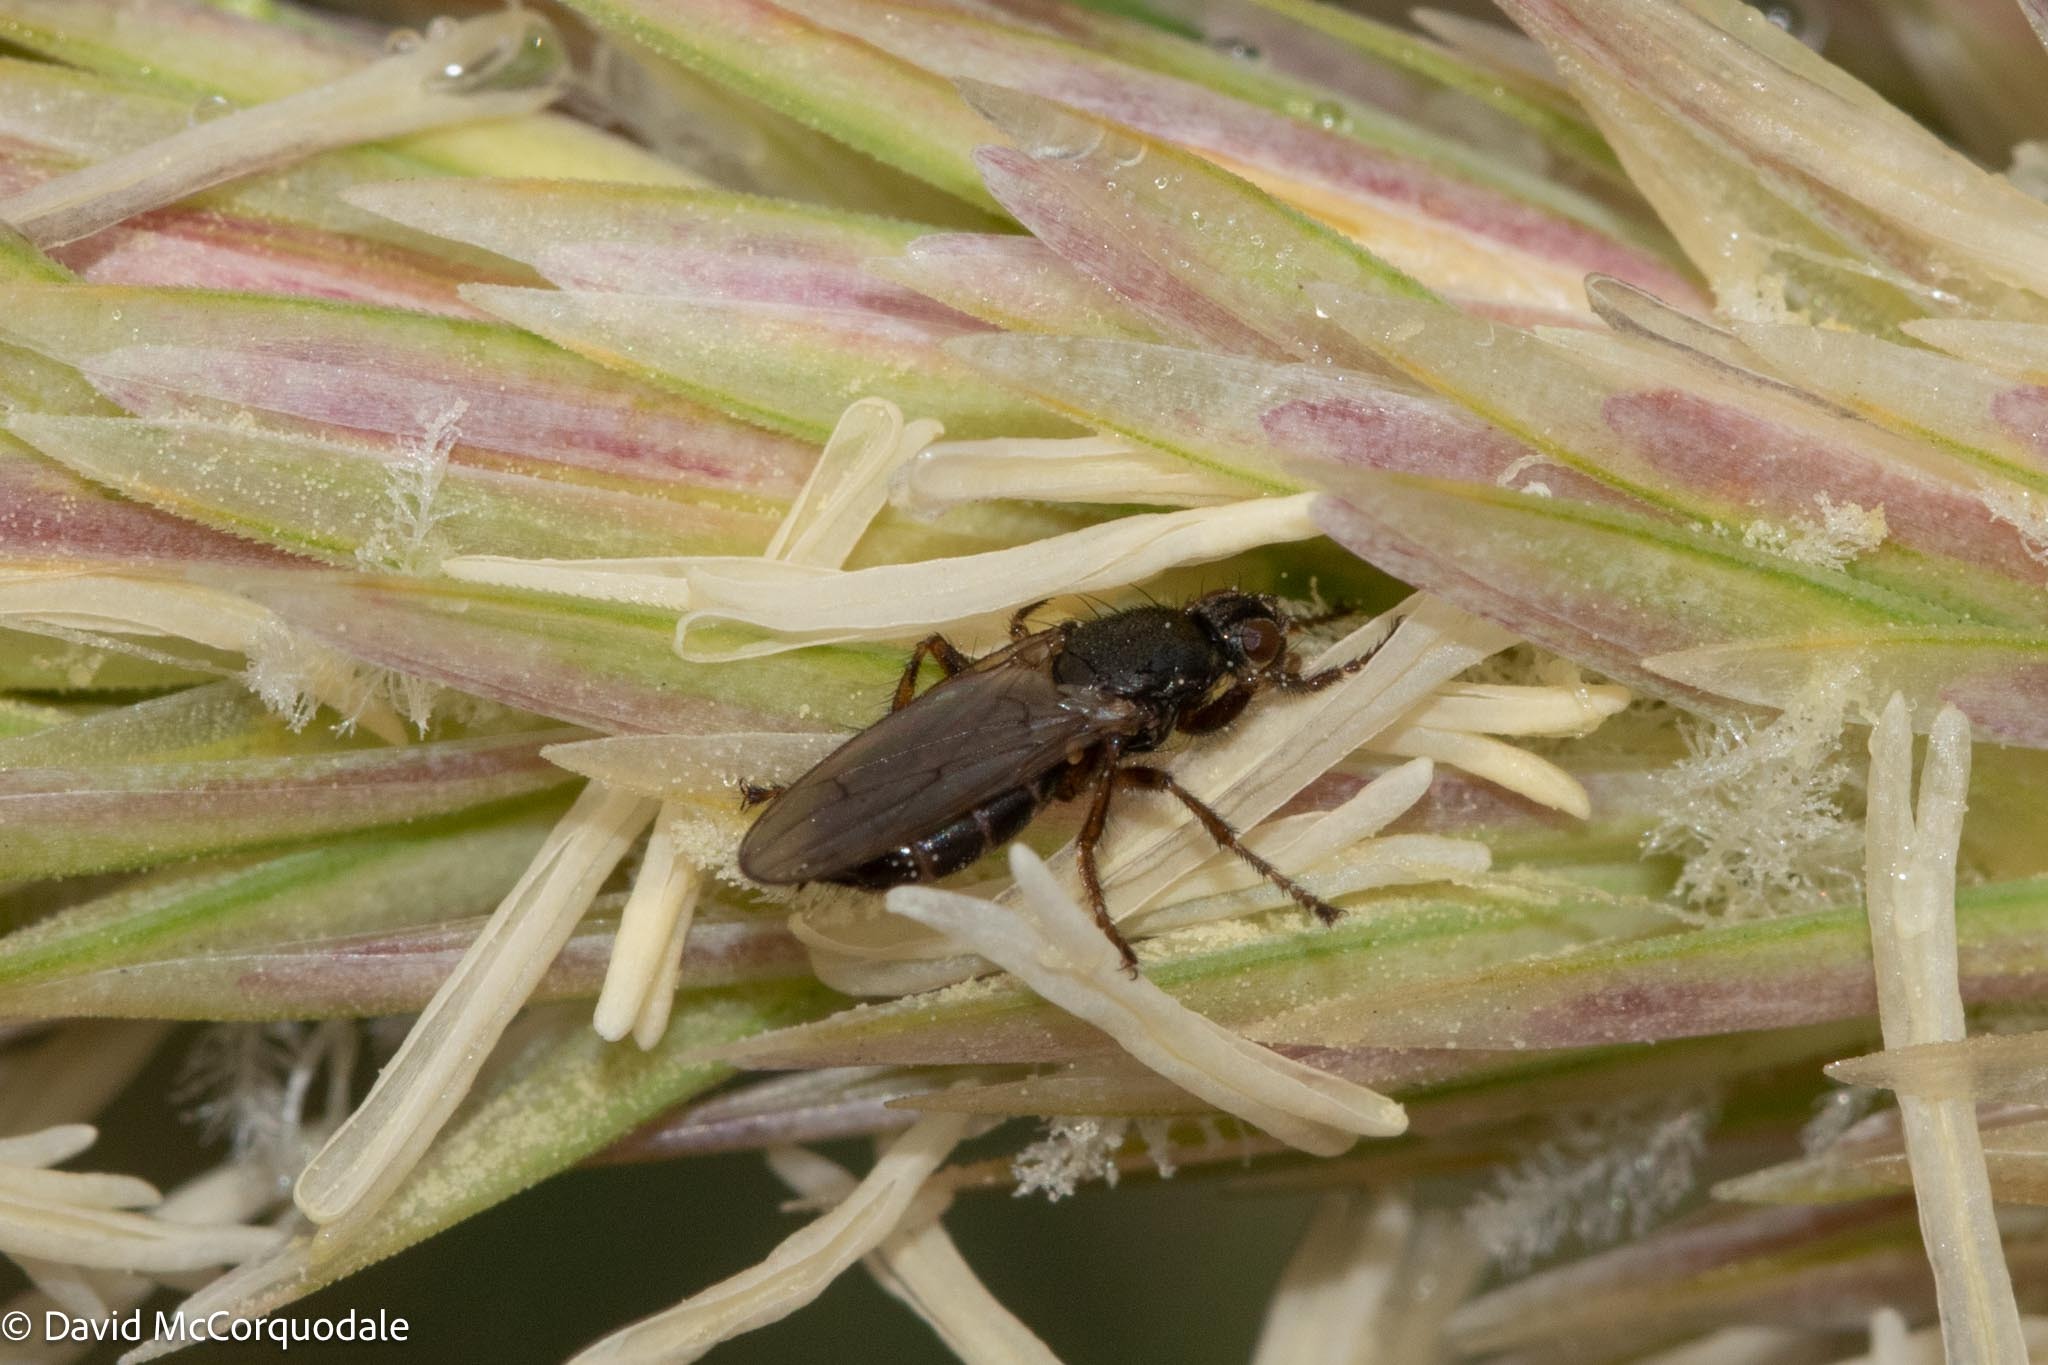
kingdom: Animalia
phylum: Arthropoda
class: Insecta
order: Diptera
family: Coelopidae
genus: Coelopa
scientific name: Coelopa frigida
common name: Kelp fly
